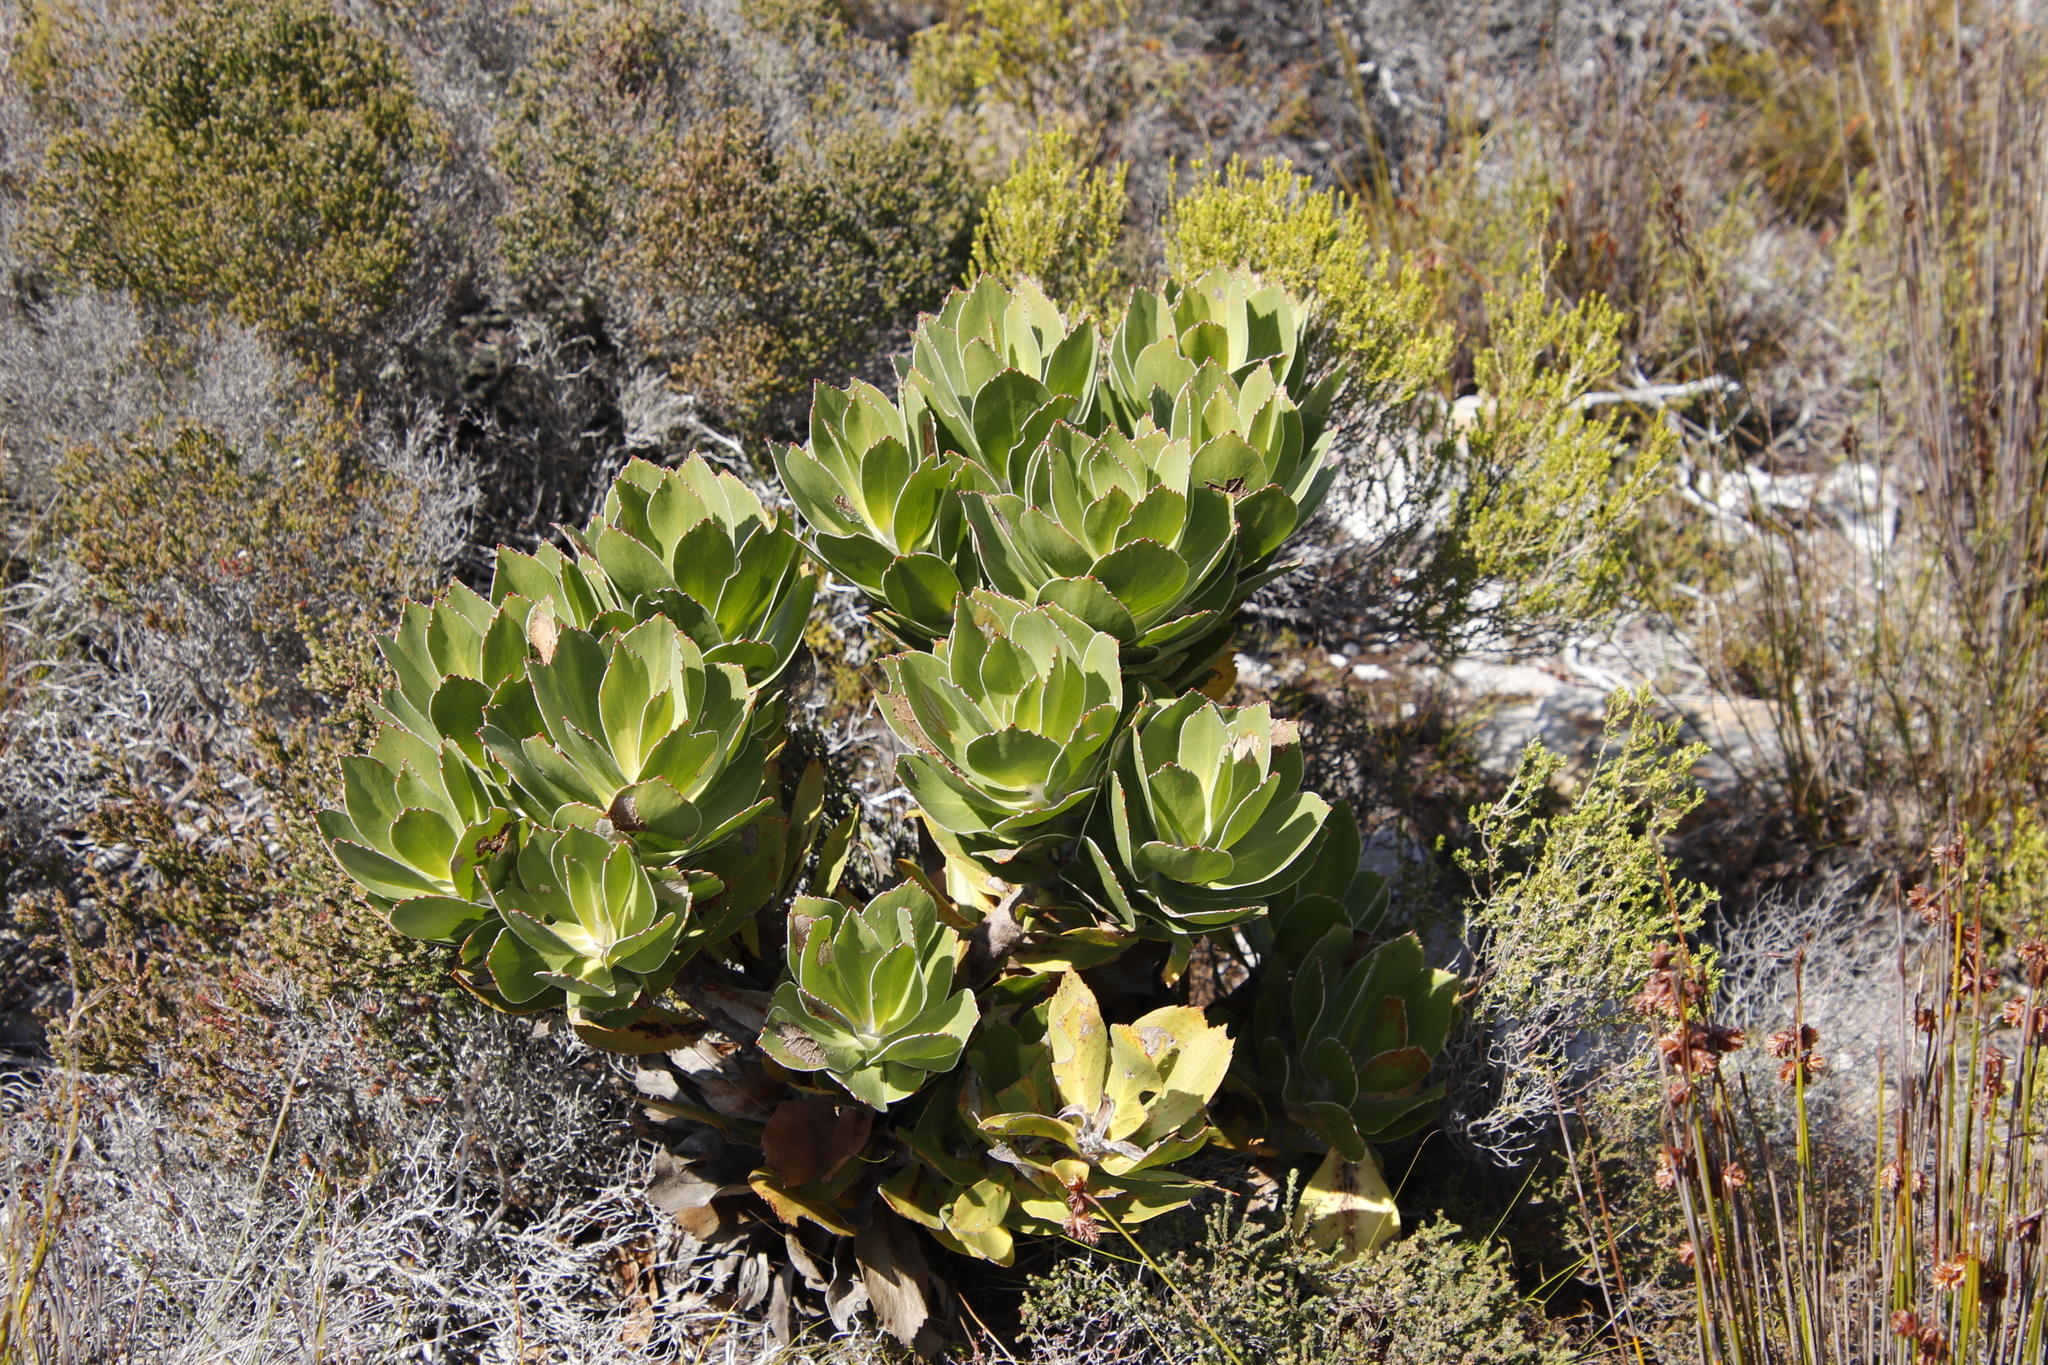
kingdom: Plantae
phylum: Tracheophyta
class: Magnoliopsida
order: Proteales
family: Proteaceae
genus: Leucospermum
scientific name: Leucospermum conocarpodendron
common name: Tree pincushion
